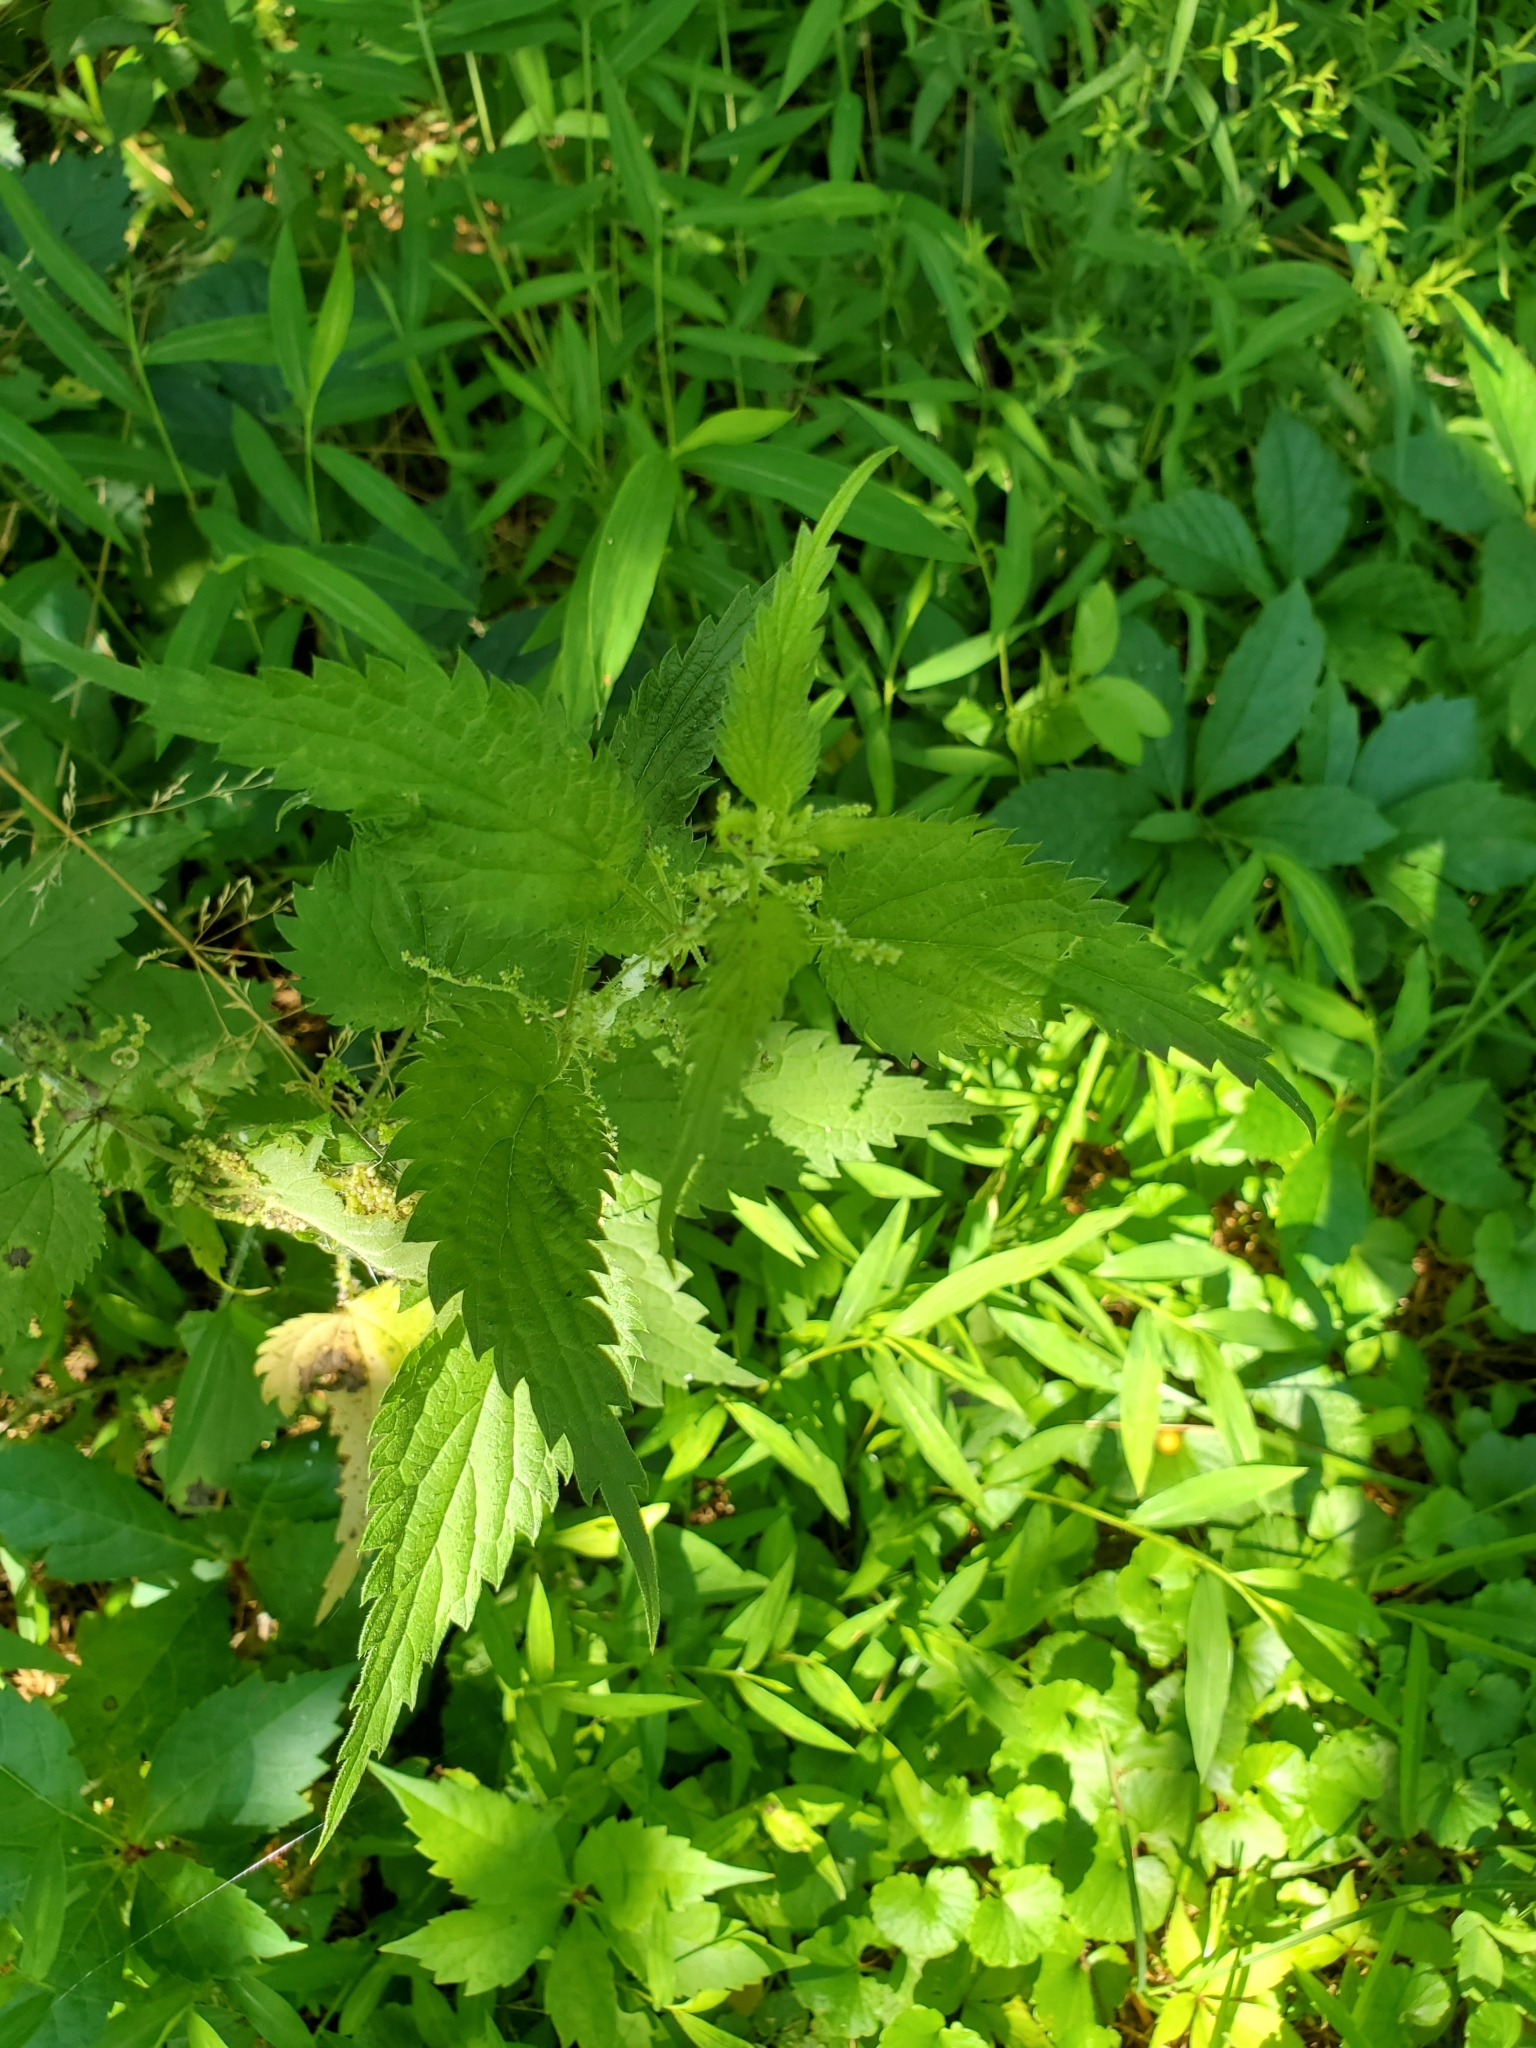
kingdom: Plantae
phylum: Tracheophyta
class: Magnoliopsida
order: Rosales
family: Urticaceae
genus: Urtica
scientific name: Urtica dioica
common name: Common nettle
